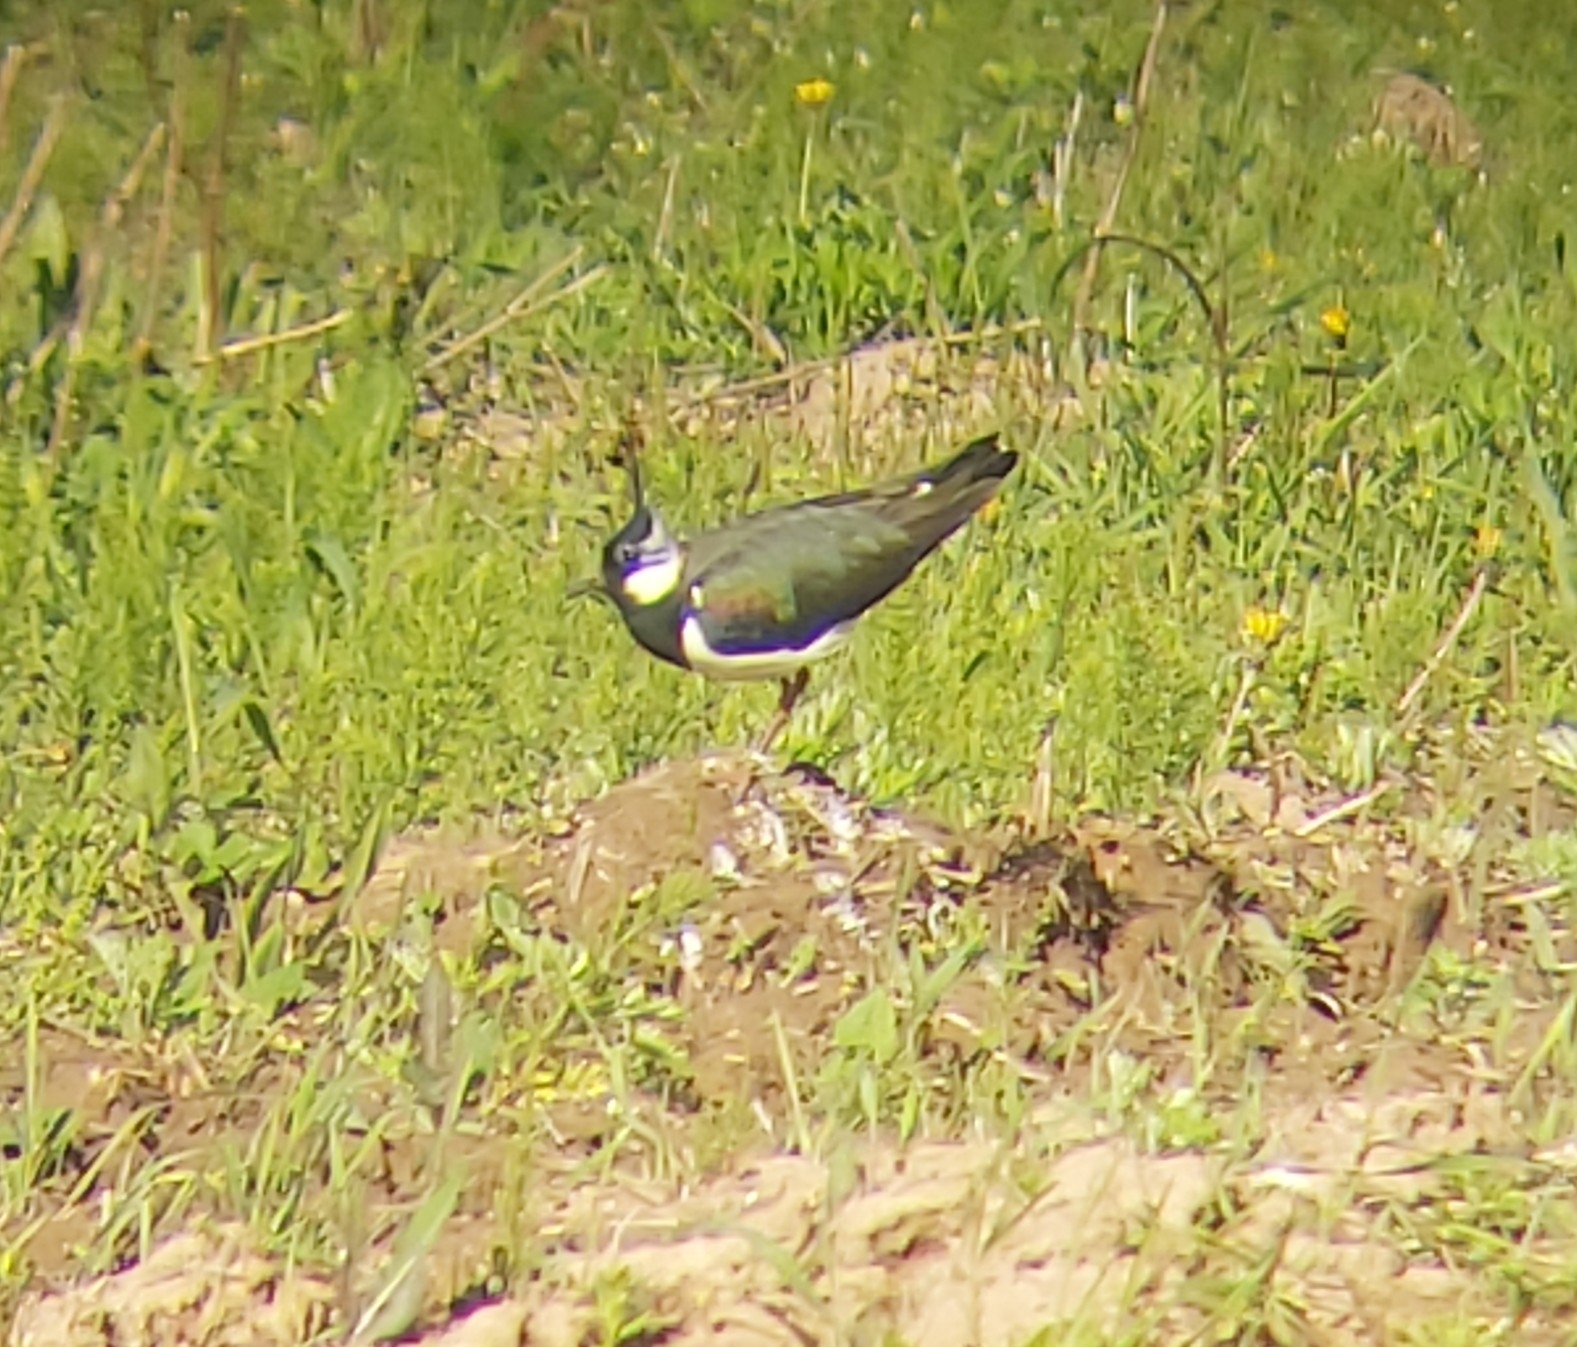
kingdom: Animalia
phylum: Chordata
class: Aves
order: Charadriiformes
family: Charadriidae
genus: Vanellus
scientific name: Vanellus vanellus
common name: Northern lapwing
